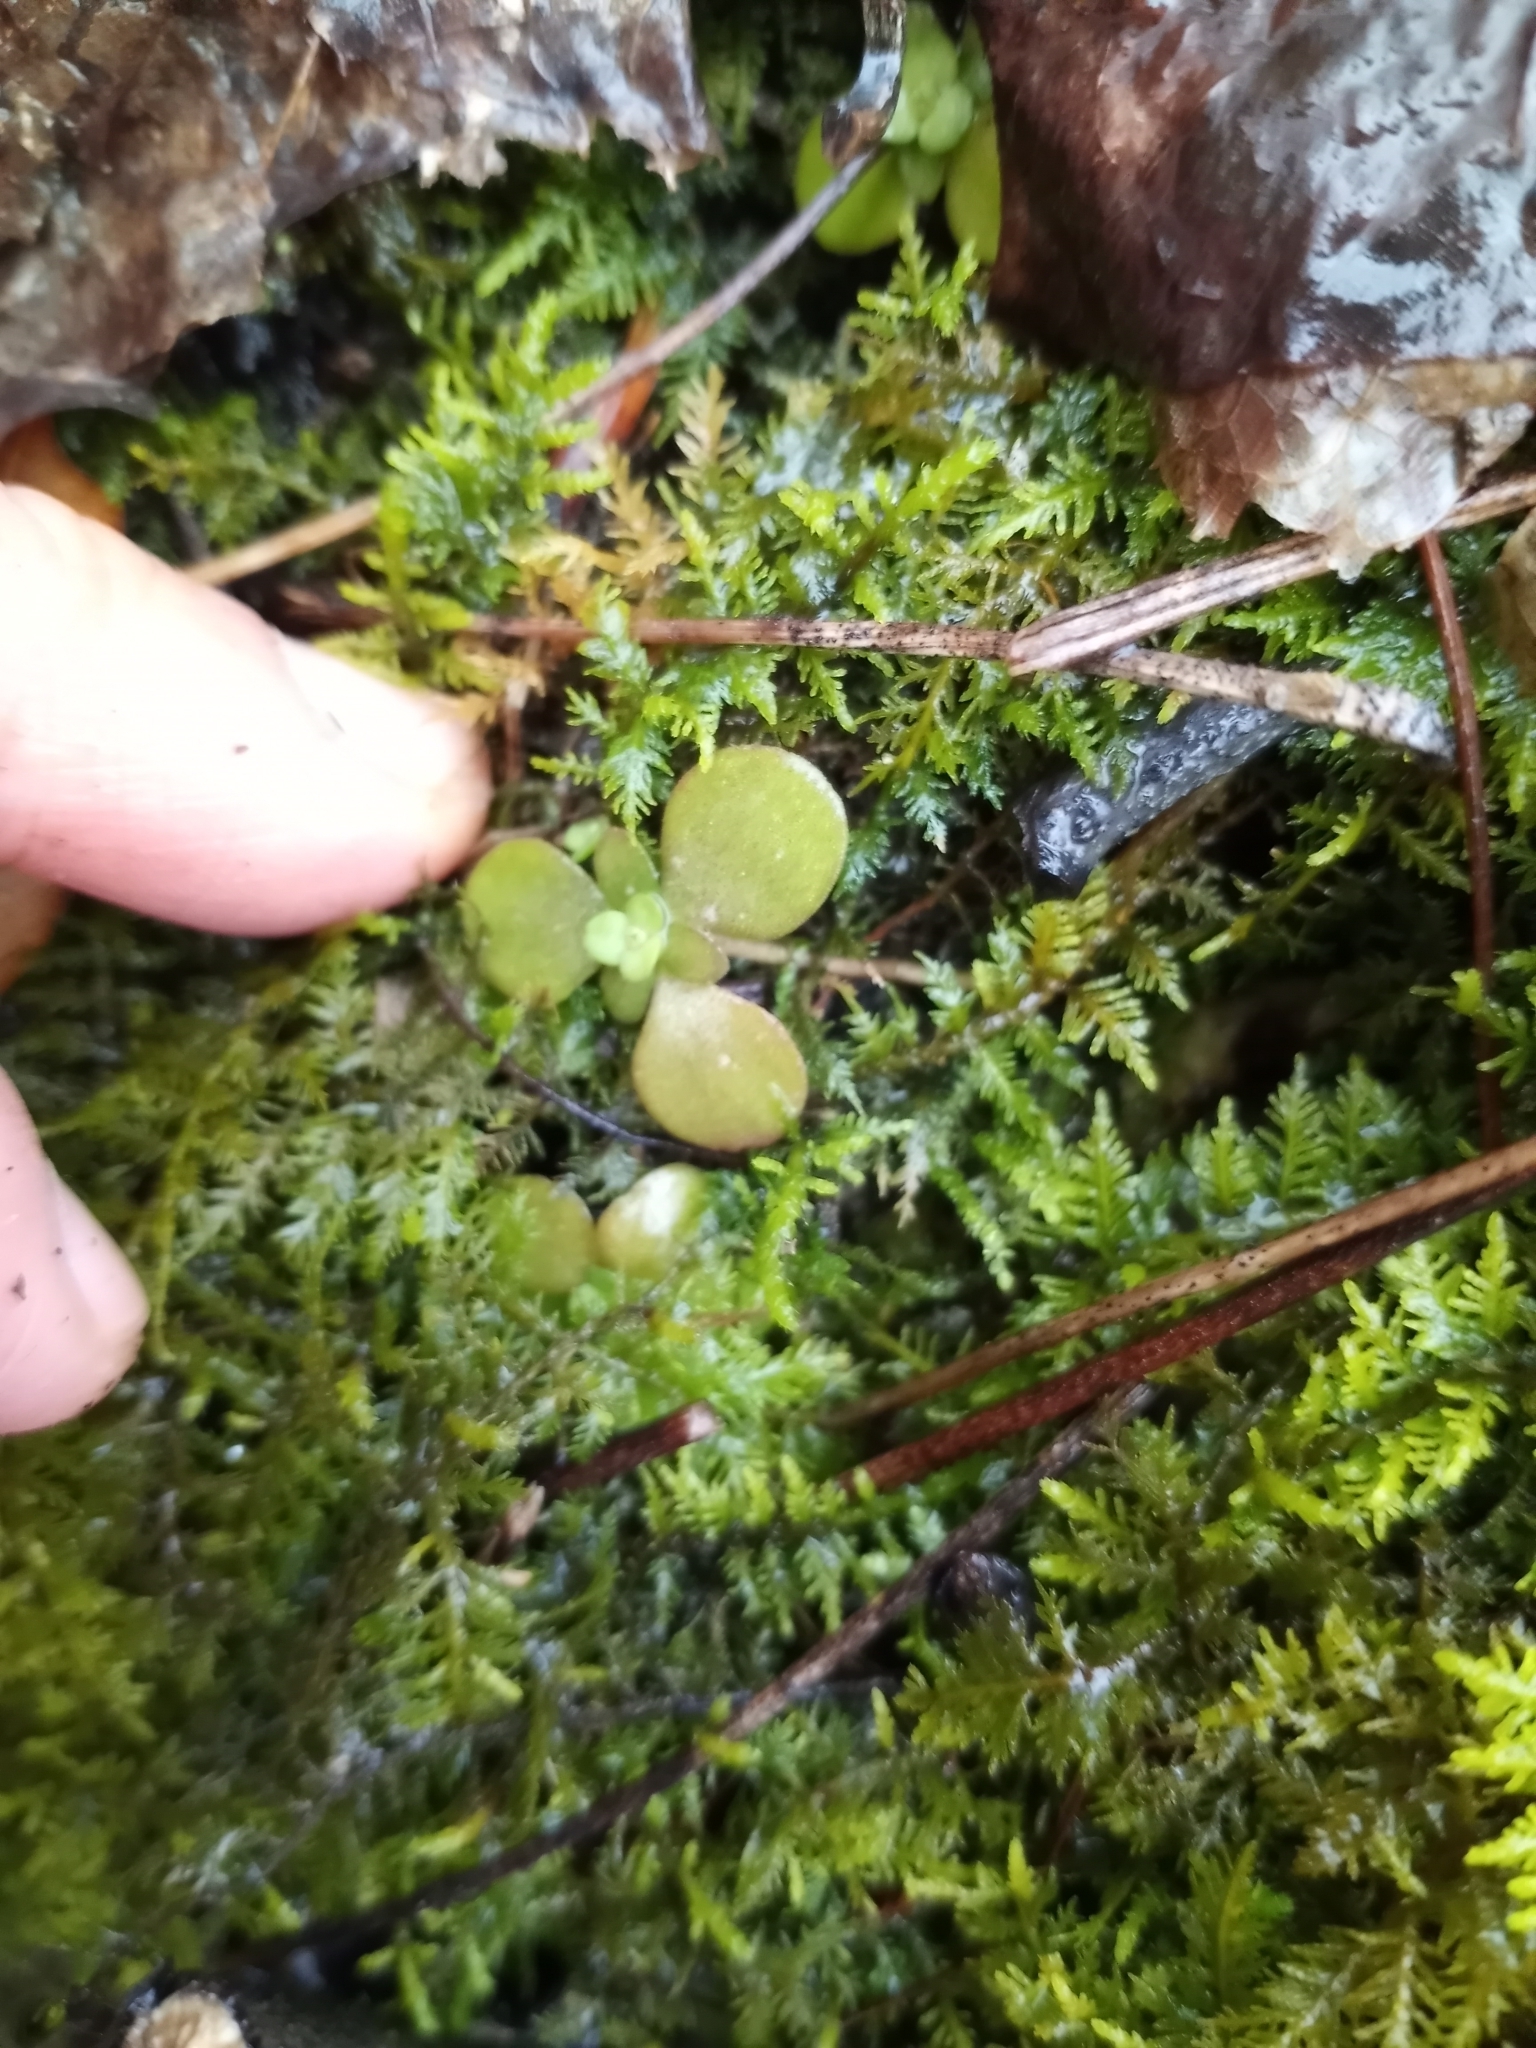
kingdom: Plantae
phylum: Tracheophyta
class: Magnoliopsida
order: Saxifragales
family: Crassulaceae
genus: Sedum
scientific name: Sedum ternatum
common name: Wild stonecrop
